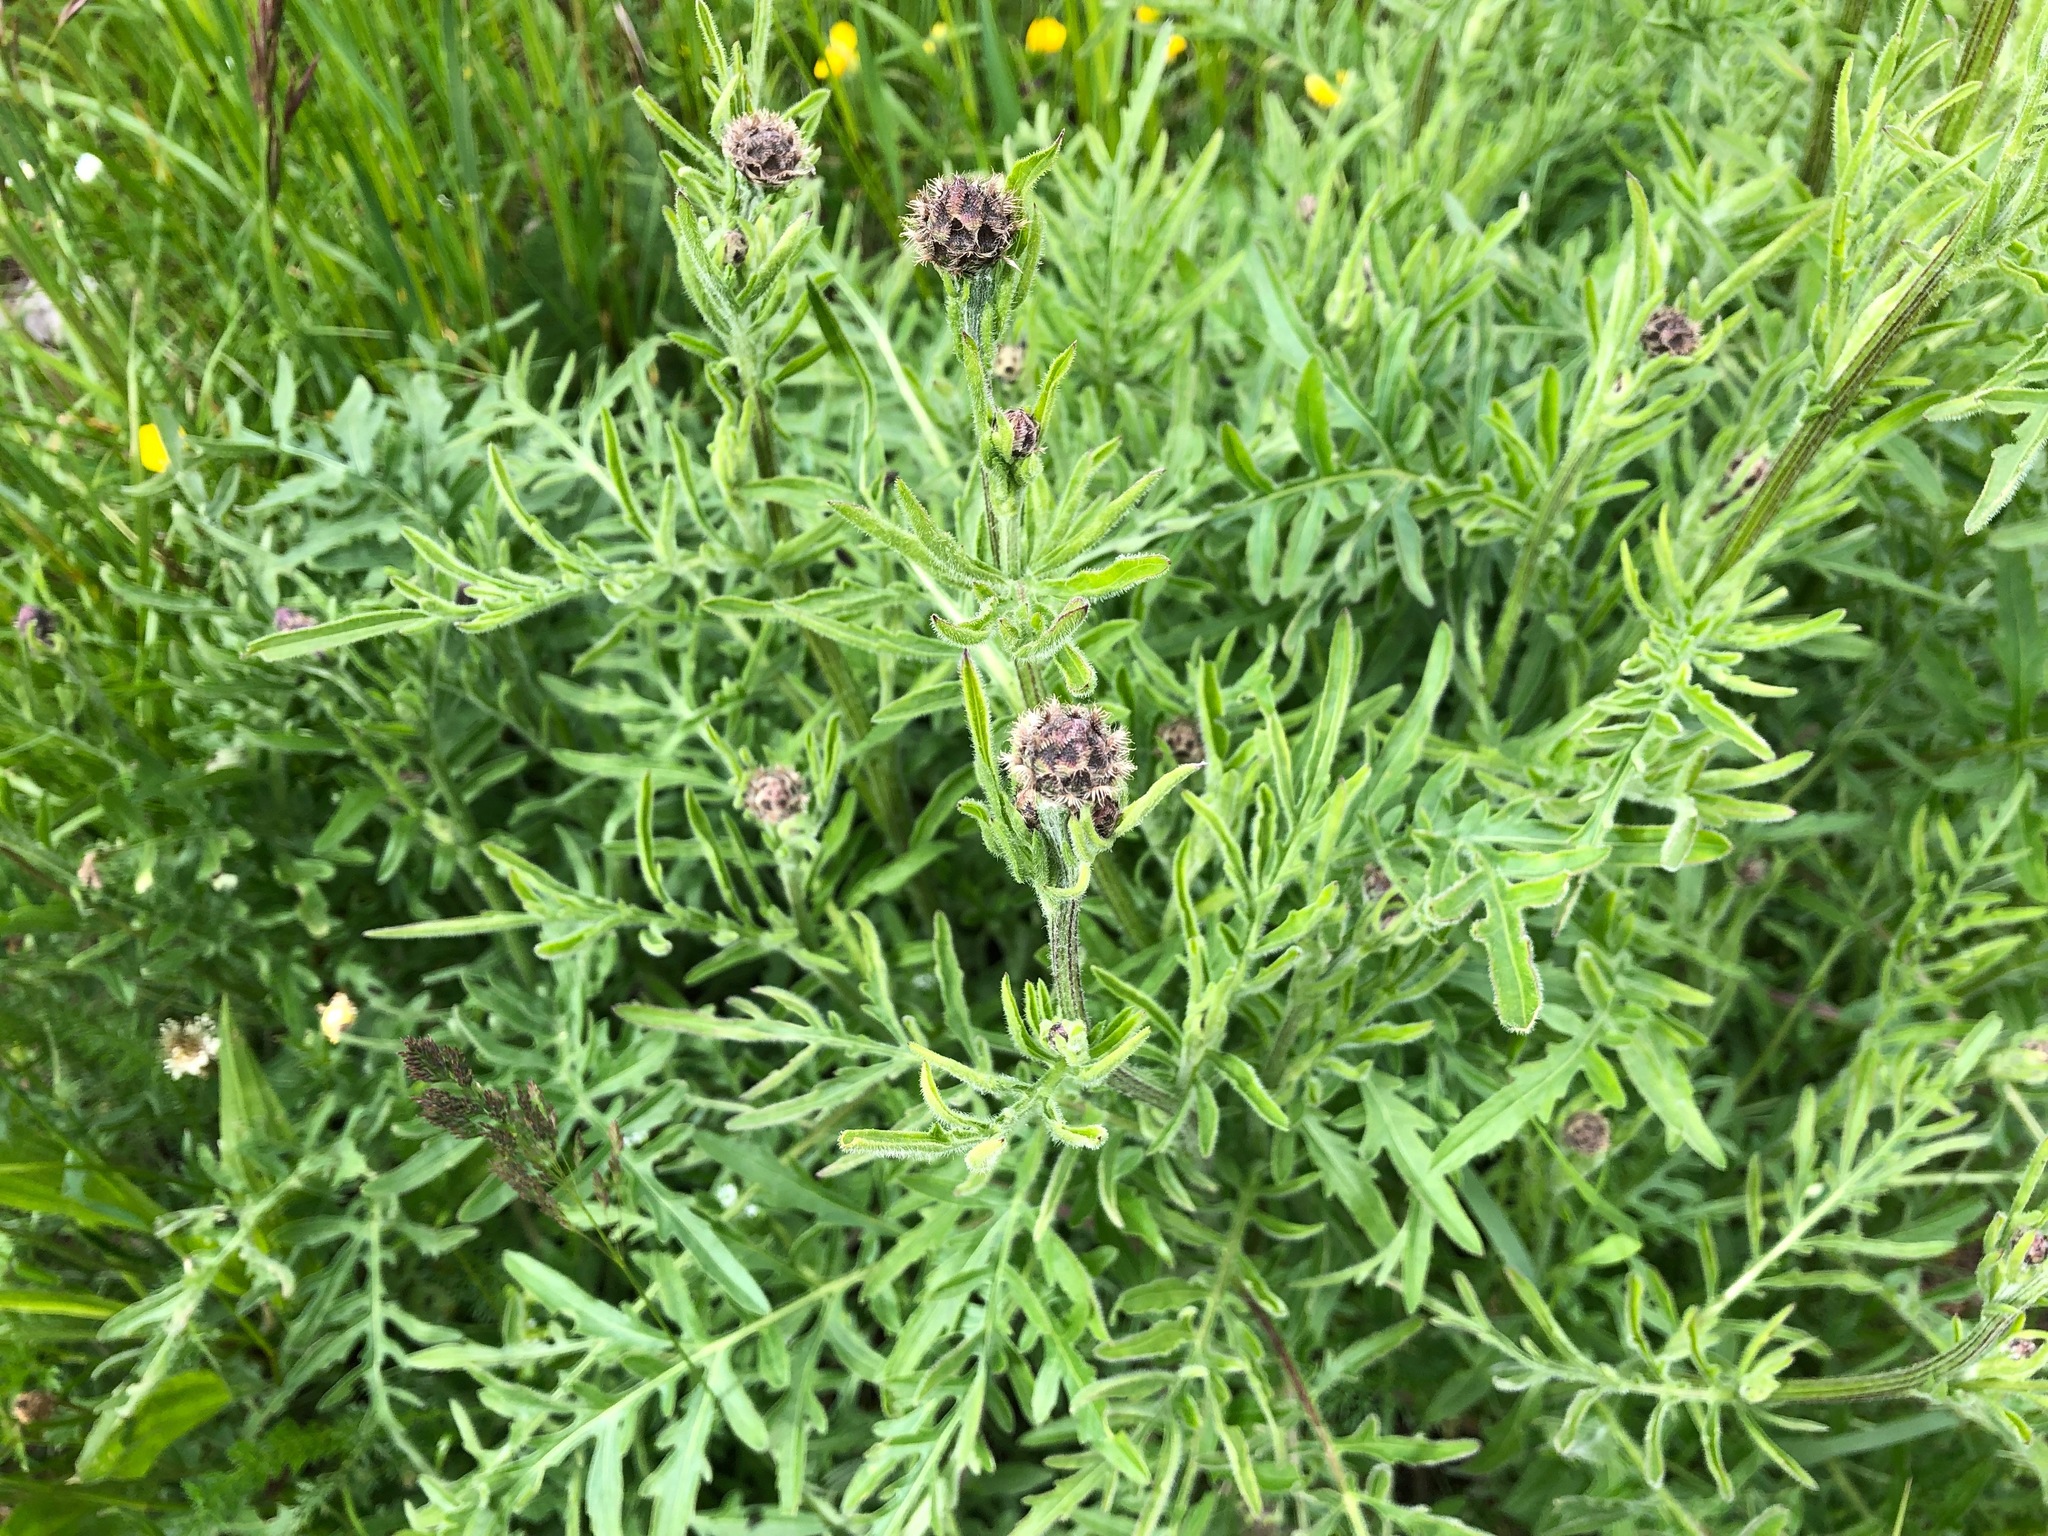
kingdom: Plantae
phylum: Tracheophyta
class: Magnoliopsida
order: Asterales
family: Asteraceae
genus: Centaurea
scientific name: Centaurea scabiosa
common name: Greater knapweed
